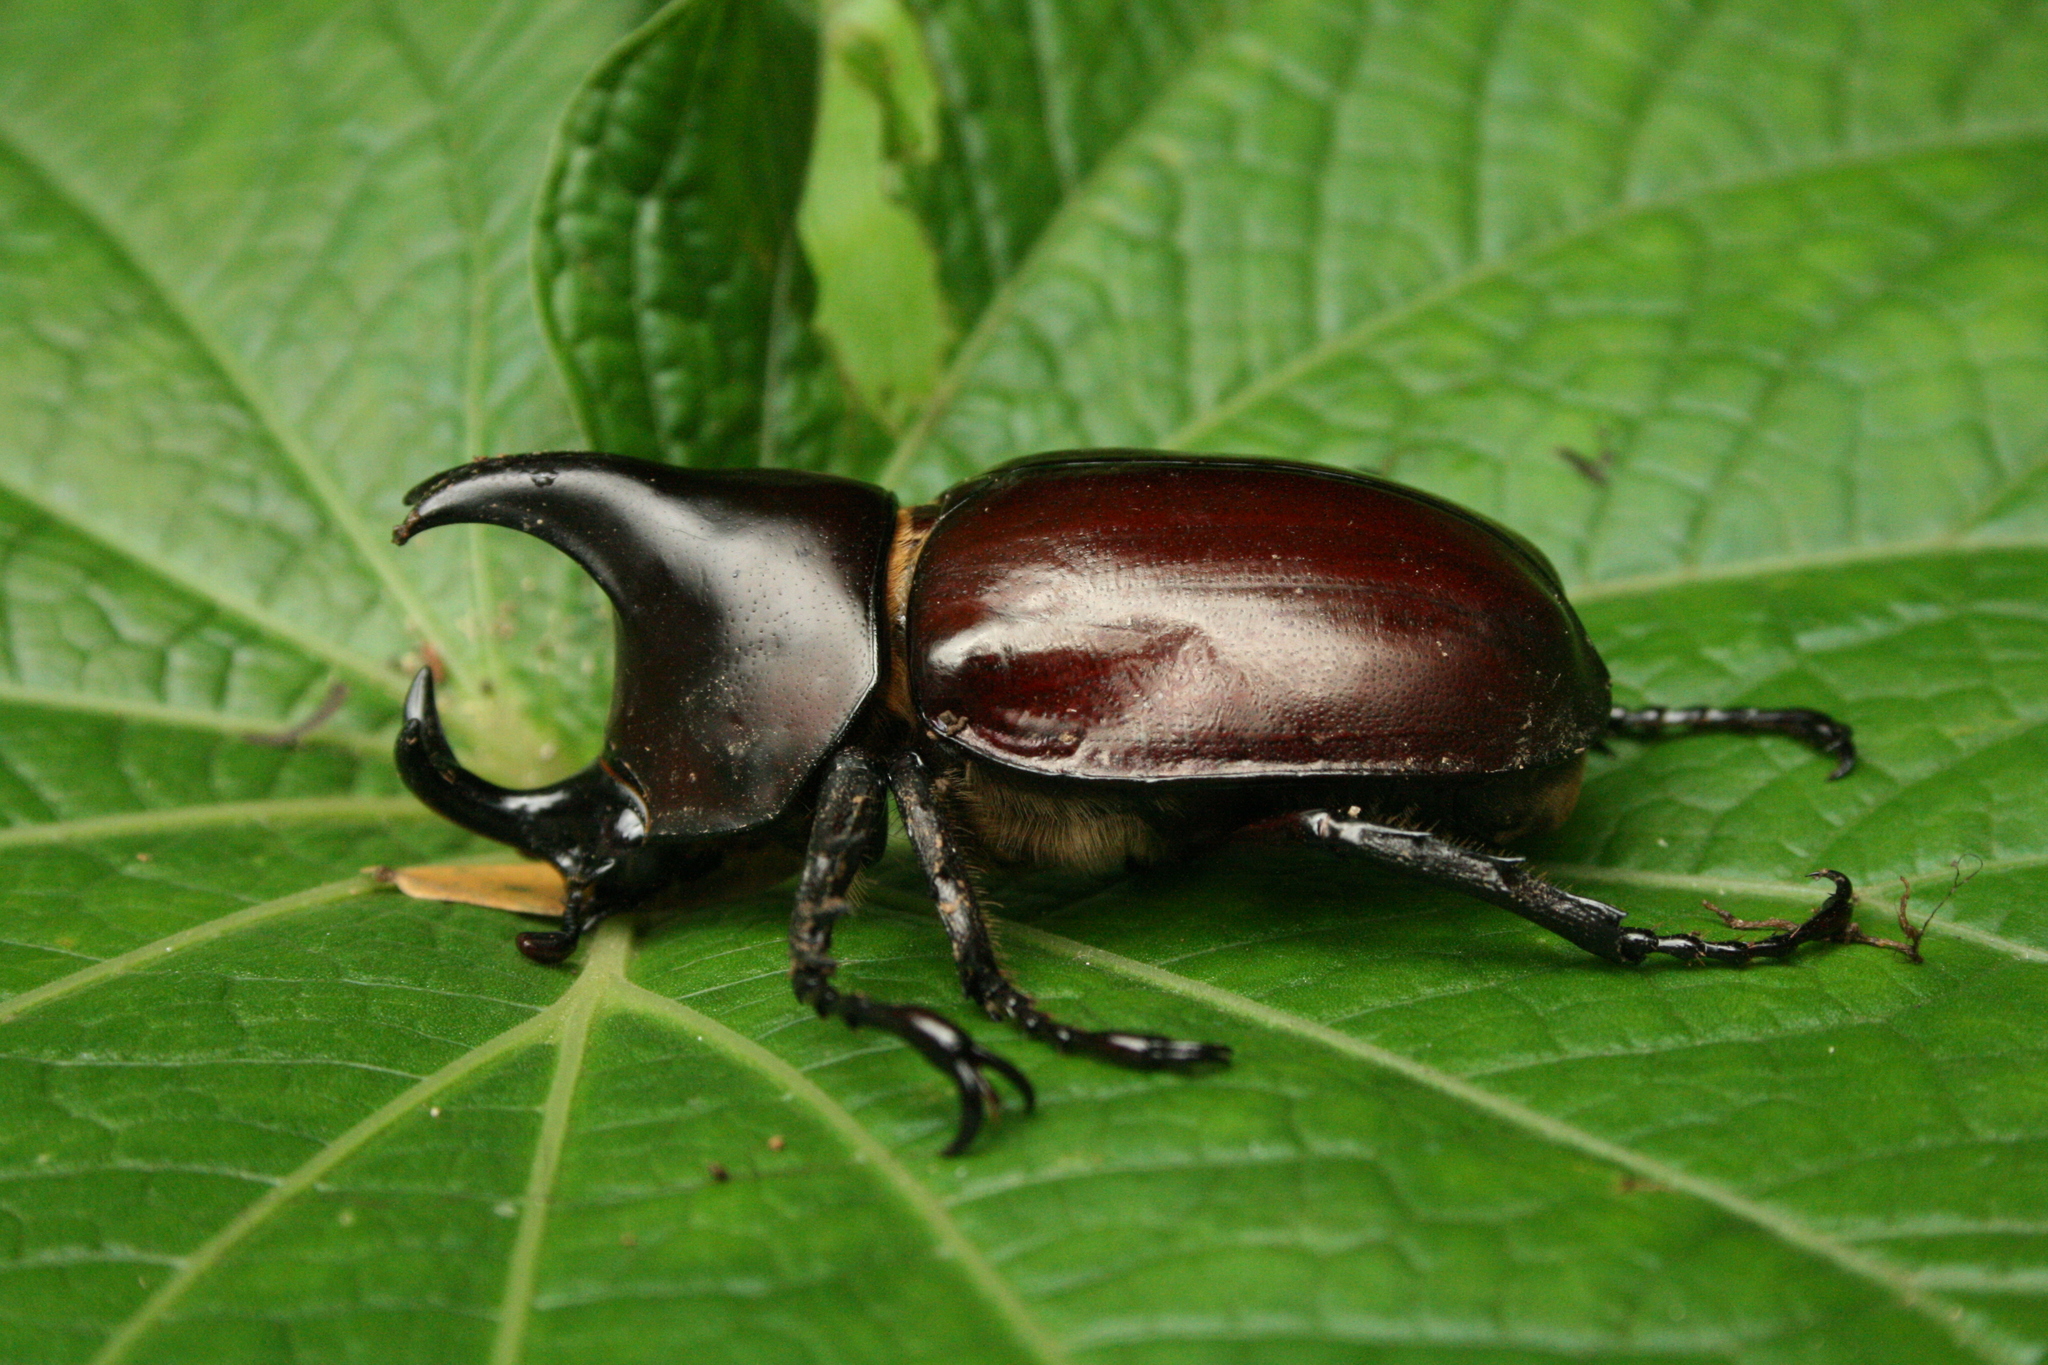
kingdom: Animalia
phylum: Arthropoda
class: Insecta
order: Coleoptera
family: Scarabaeidae
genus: Xylotrupes
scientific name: Xylotrupes taprobanus
